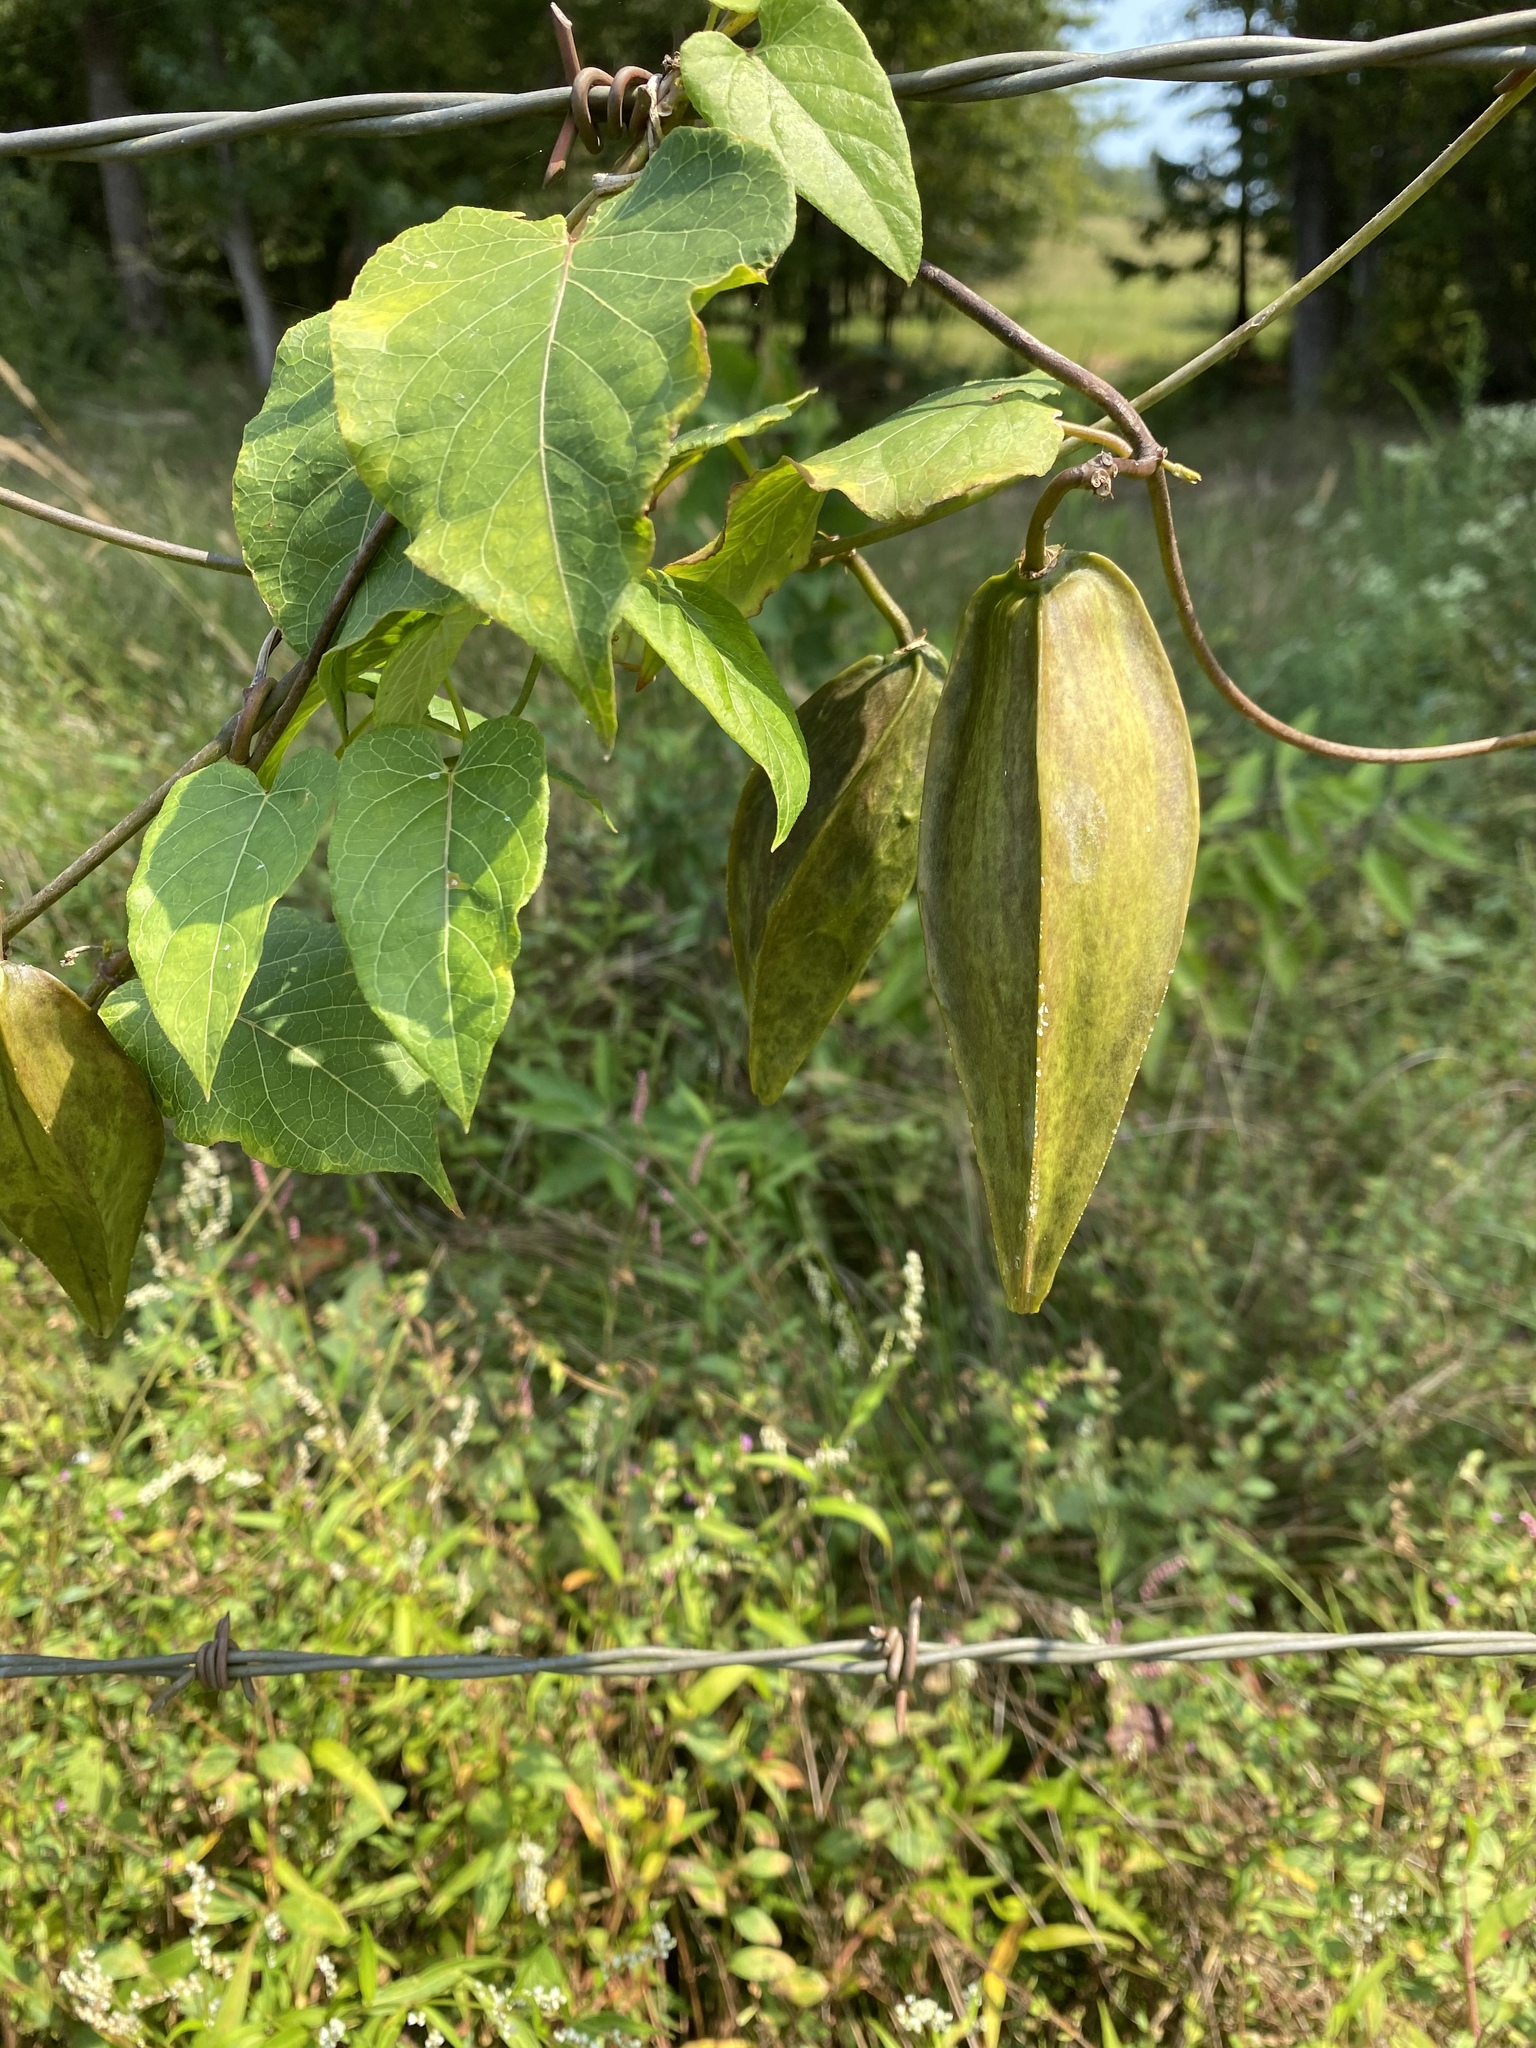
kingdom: Plantae
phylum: Tracheophyta
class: Magnoliopsida
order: Gentianales
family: Apocynaceae
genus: Gonolobus
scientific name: Gonolobus suberosus
